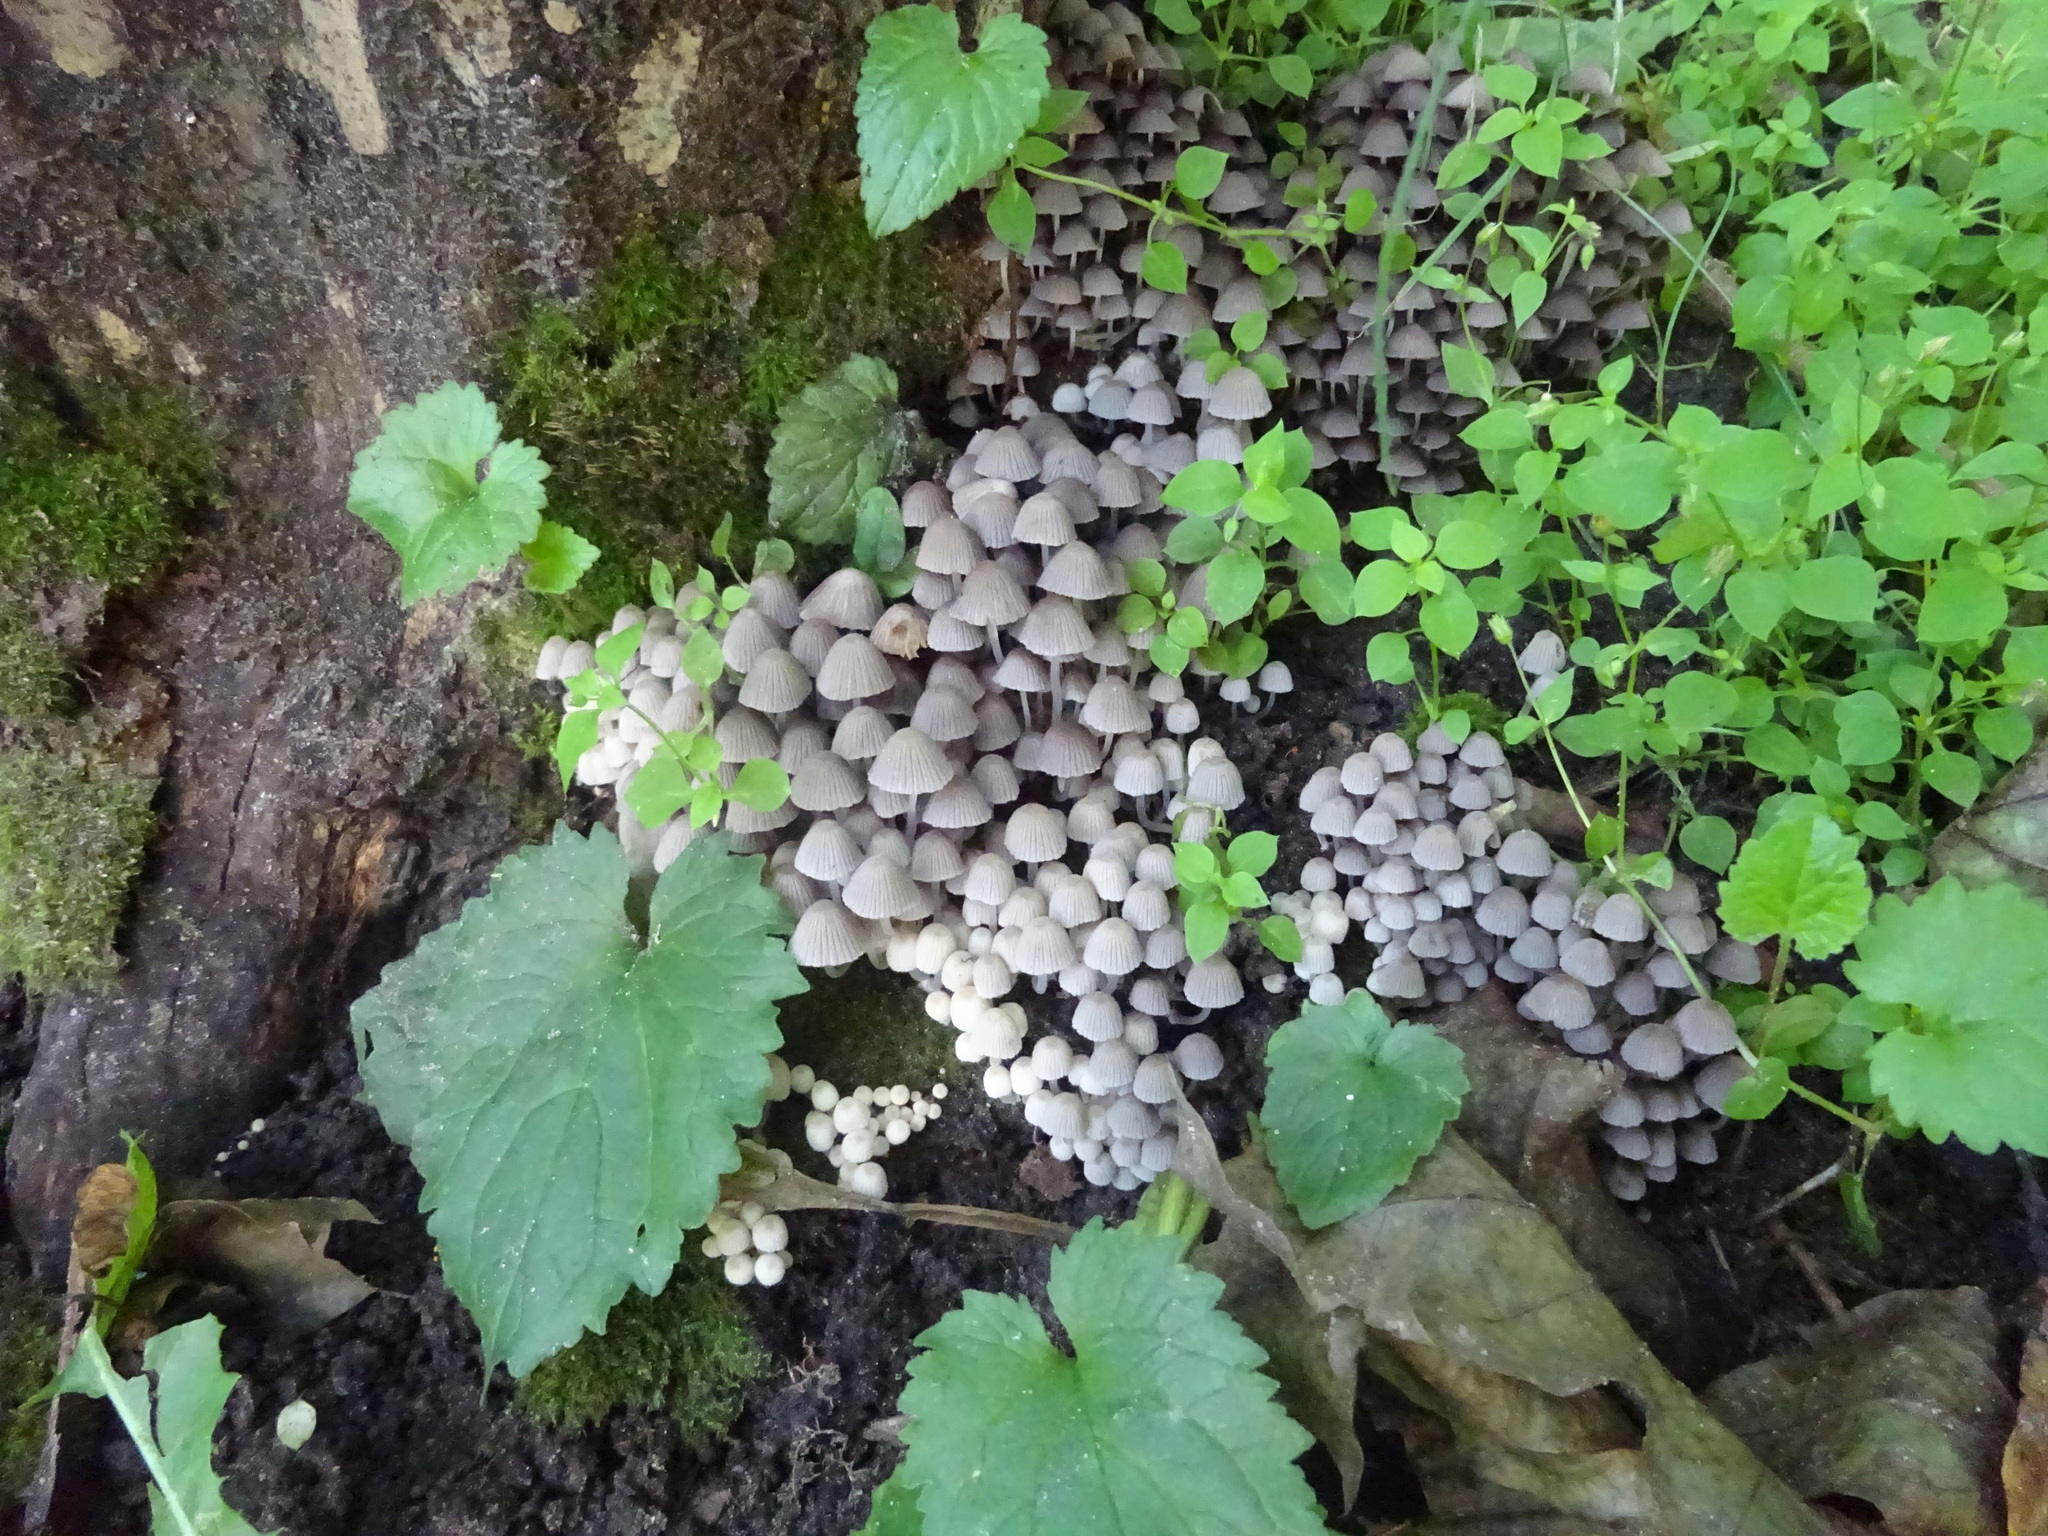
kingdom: Fungi
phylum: Basidiomycota
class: Agaricomycetes
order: Agaricales
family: Psathyrellaceae
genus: Coprinellus
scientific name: Coprinellus disseminatus
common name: Fairies' bonnets
